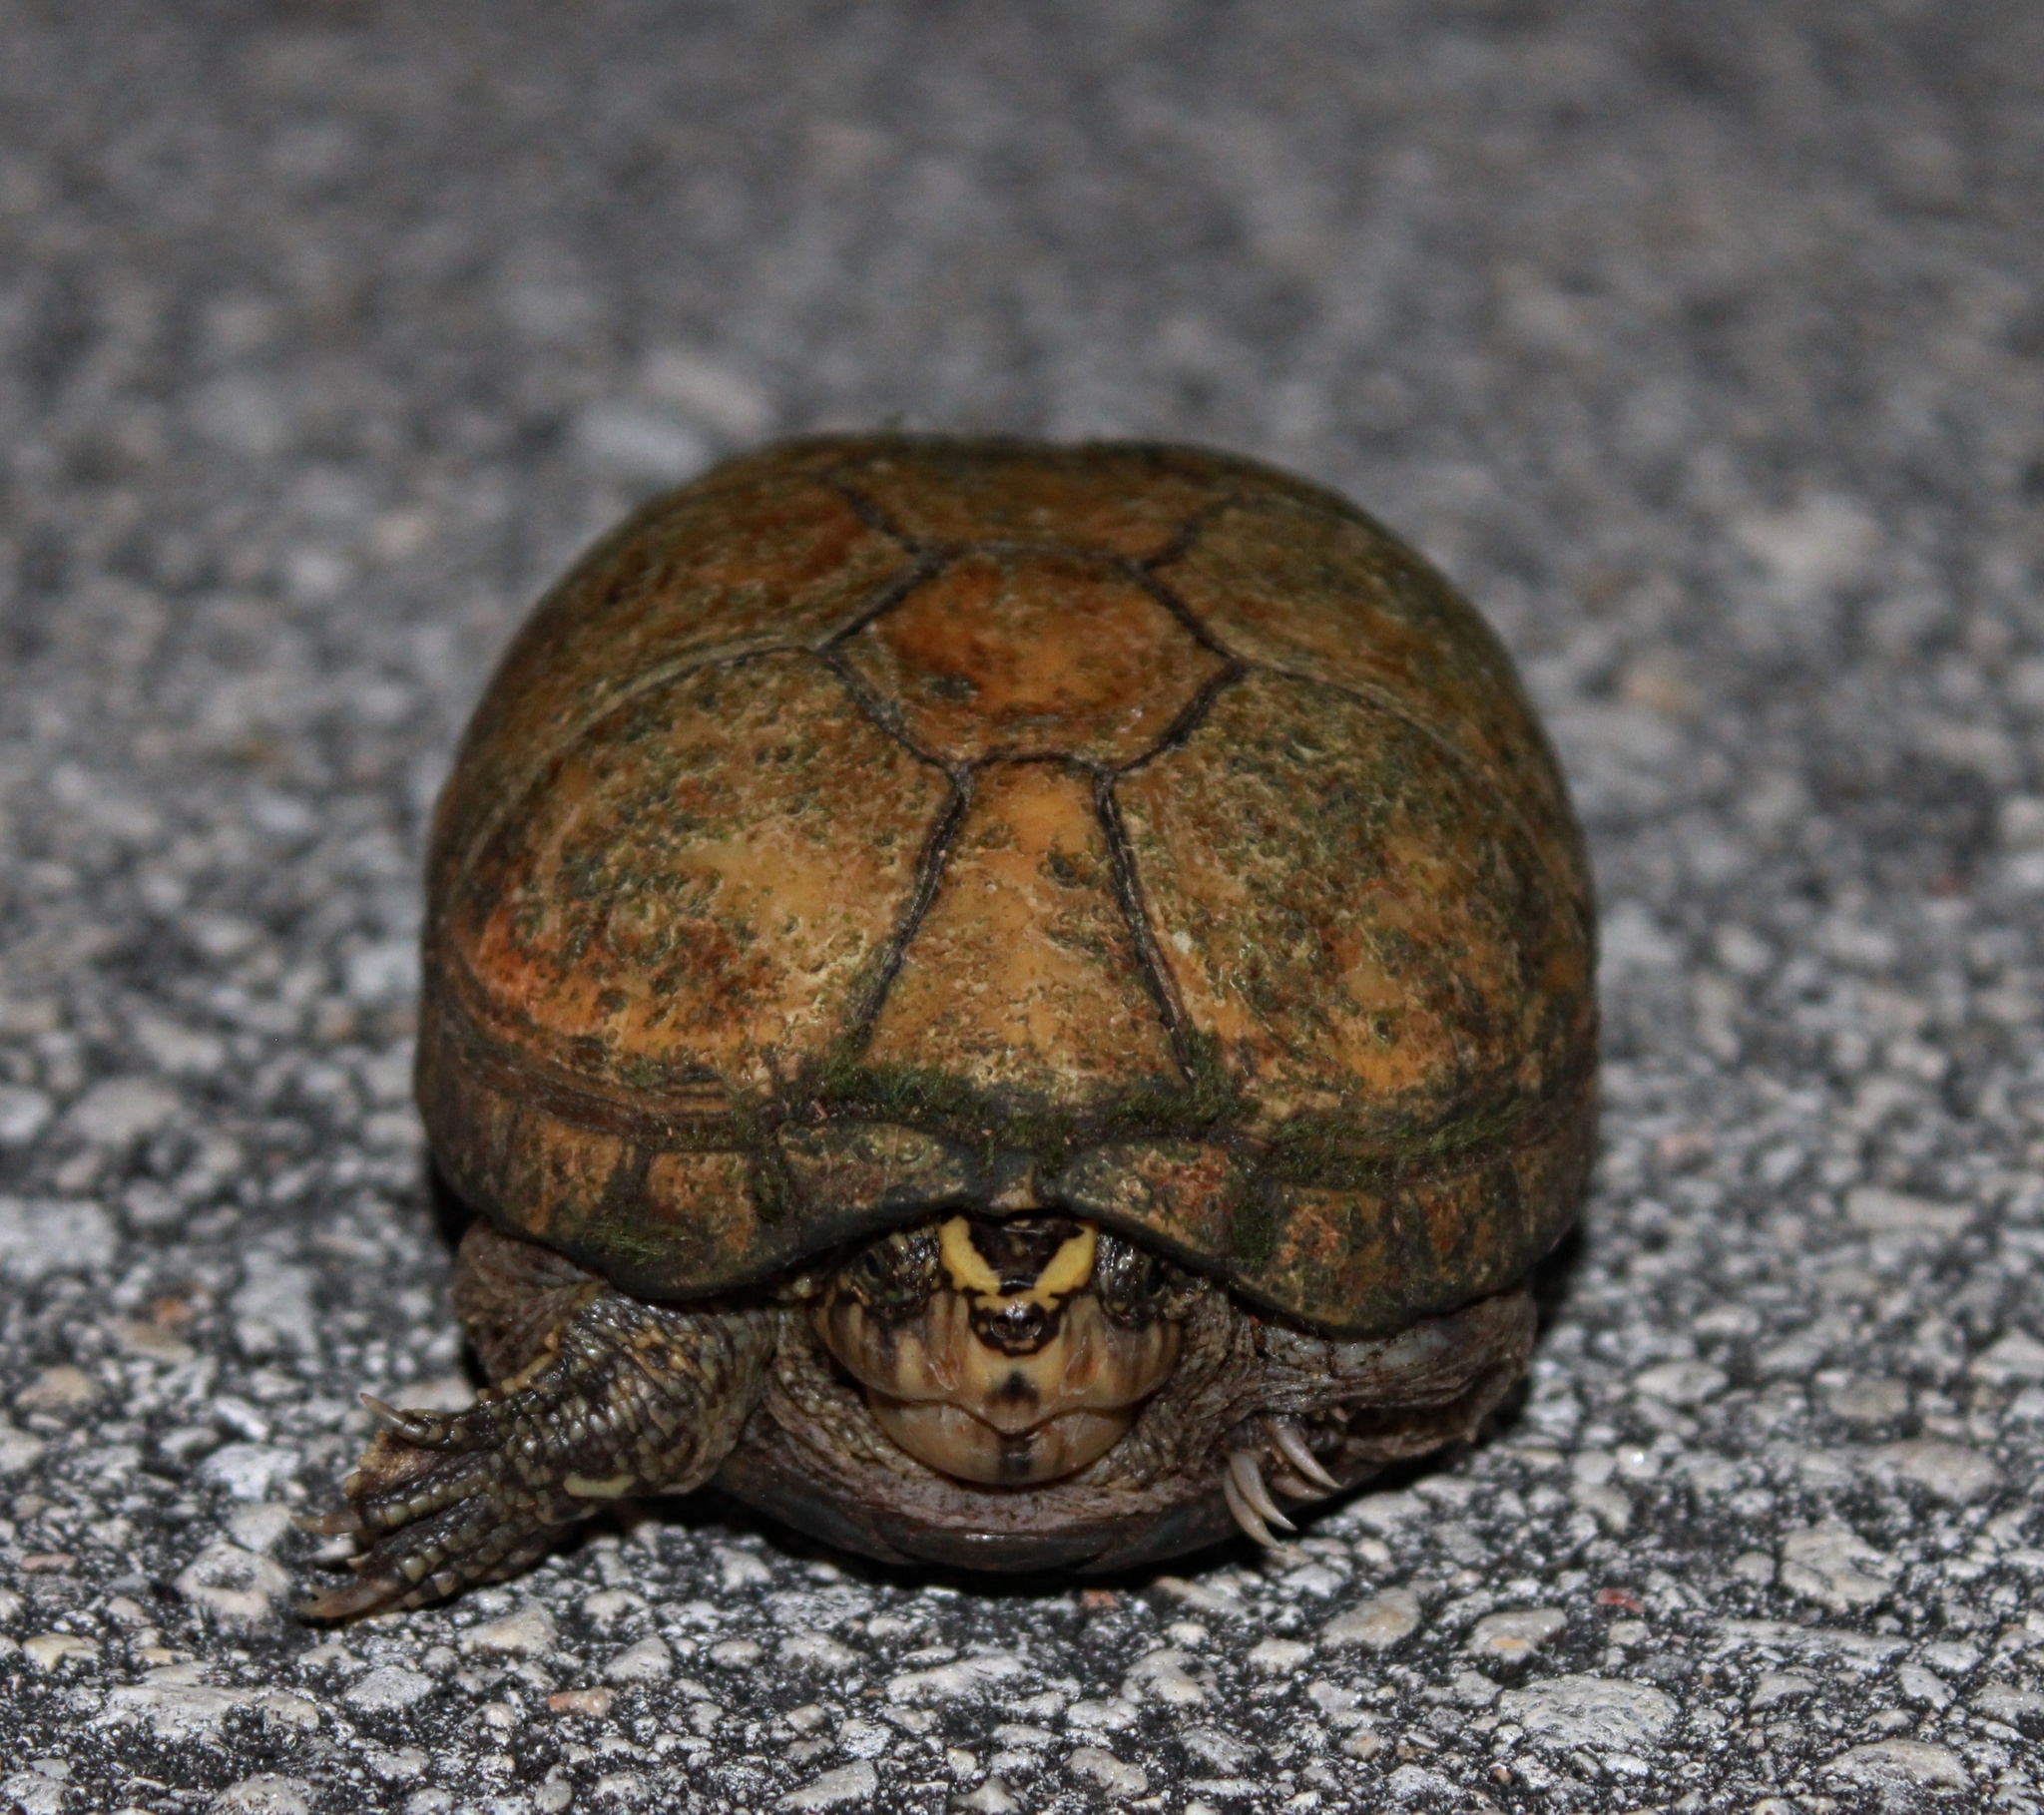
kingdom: Animalia
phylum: Chordata
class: Testudines
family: Kinosternidae
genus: Kinosternon
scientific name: Kinosternon baurii
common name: Striped mud turtle
